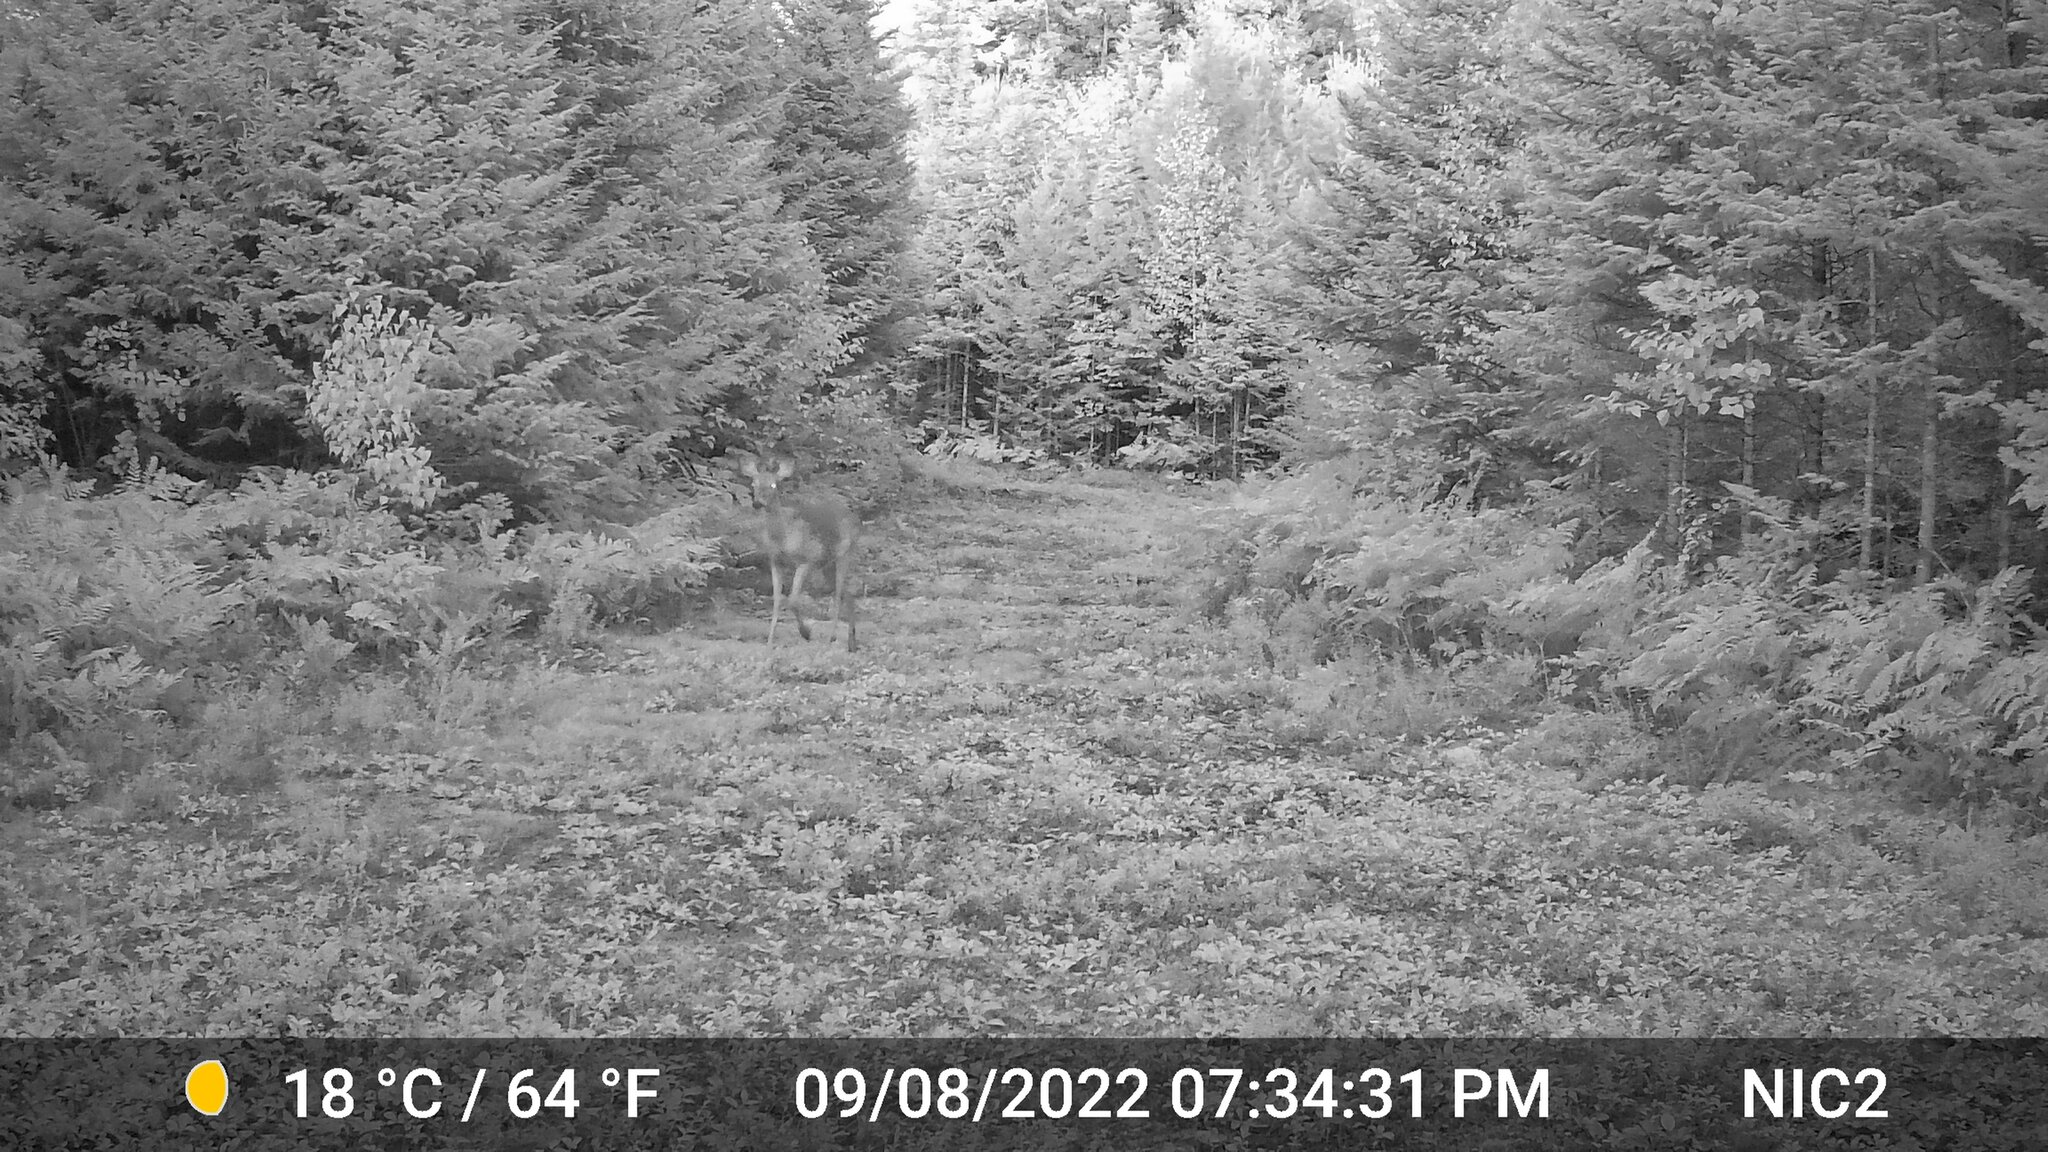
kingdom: Animalia
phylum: Chordata
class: Mammalia
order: Artiodactyla
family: Cervidae
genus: Odocoileus
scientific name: Odocoileus virginianus
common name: White-tailed deer
